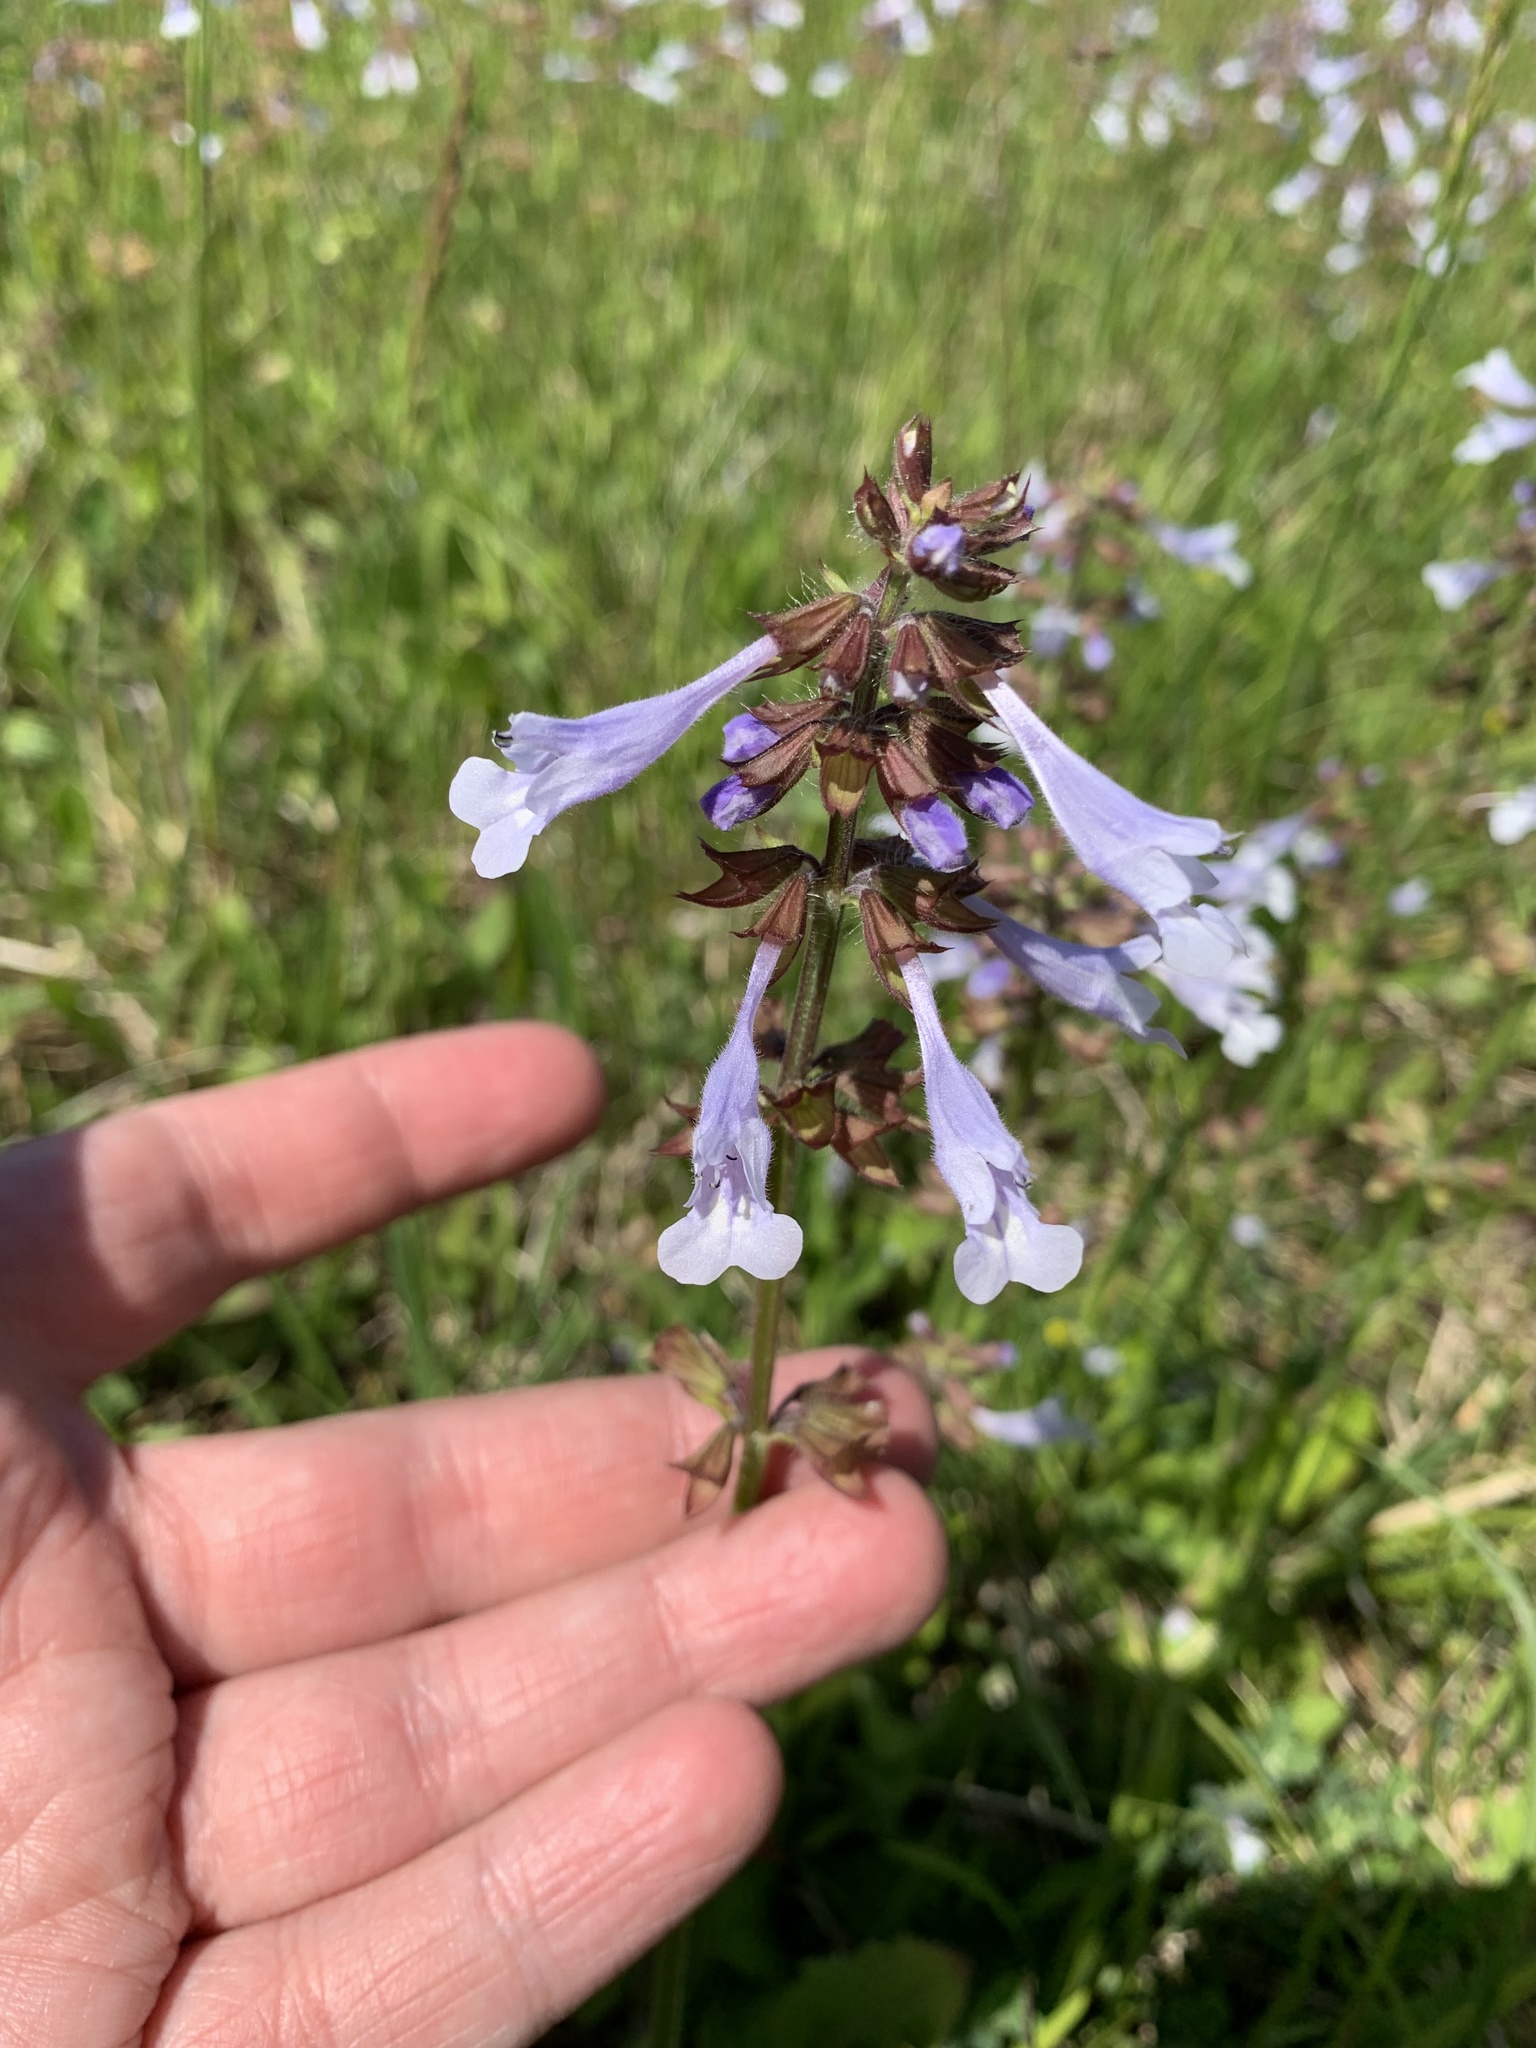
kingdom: Plantae
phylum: Tracheophyta
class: Magnoliopsida
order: Lamiales
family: Lamiaceae
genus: Salvia
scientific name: Salvia lyrata
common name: Cancerweed
